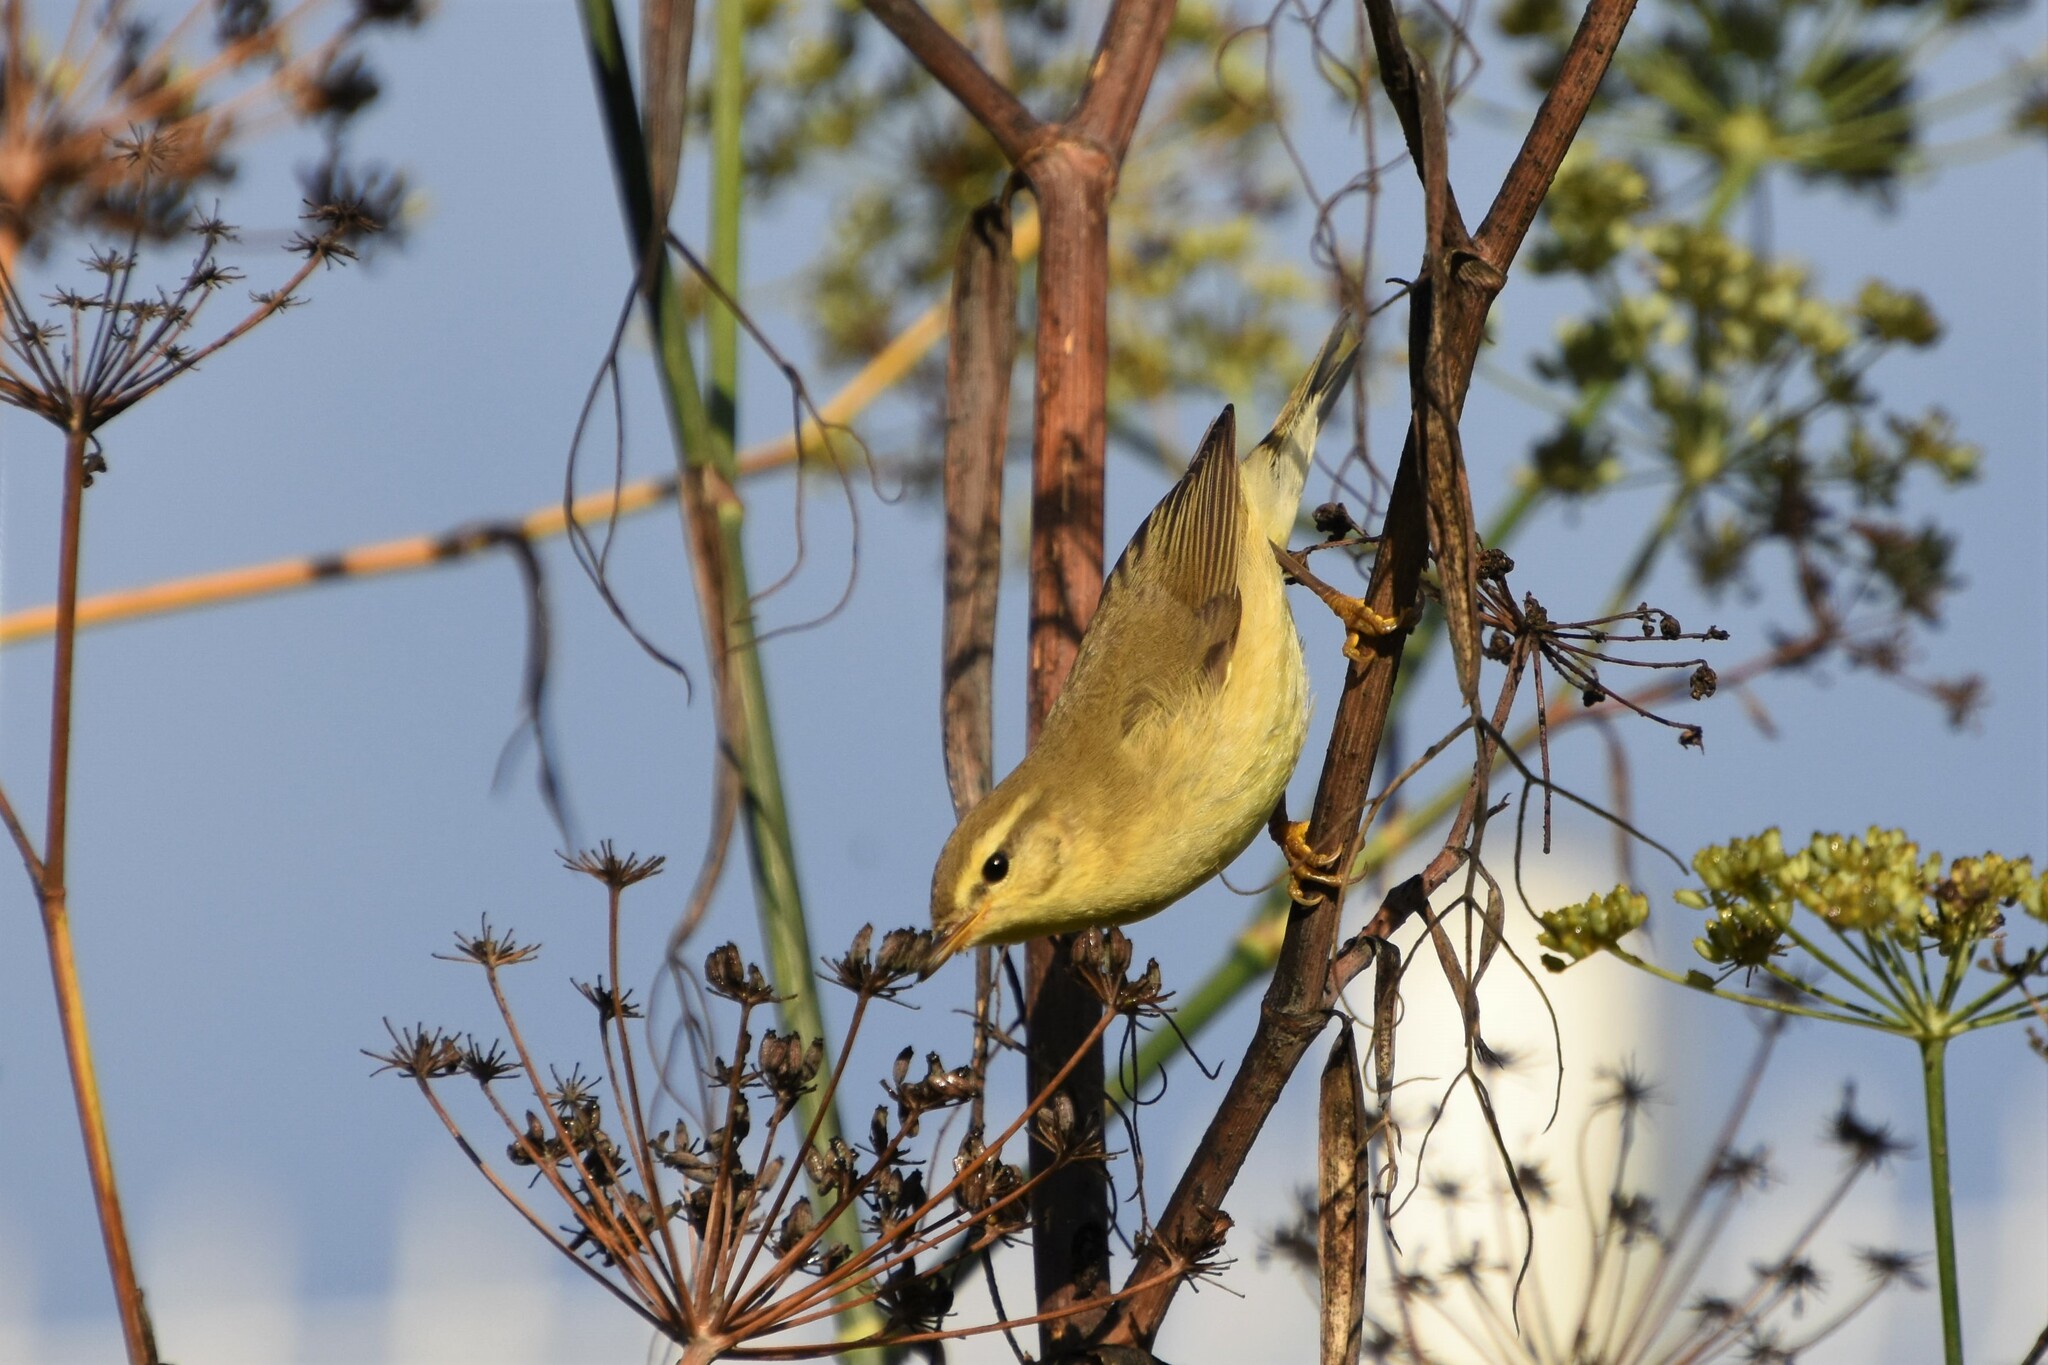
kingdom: Animalia
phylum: Chordata
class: Aves
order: Passeriformes
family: Phylloscopidae
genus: Phylloscopus
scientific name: Phylloscopus trochilus
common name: Willow warbler
